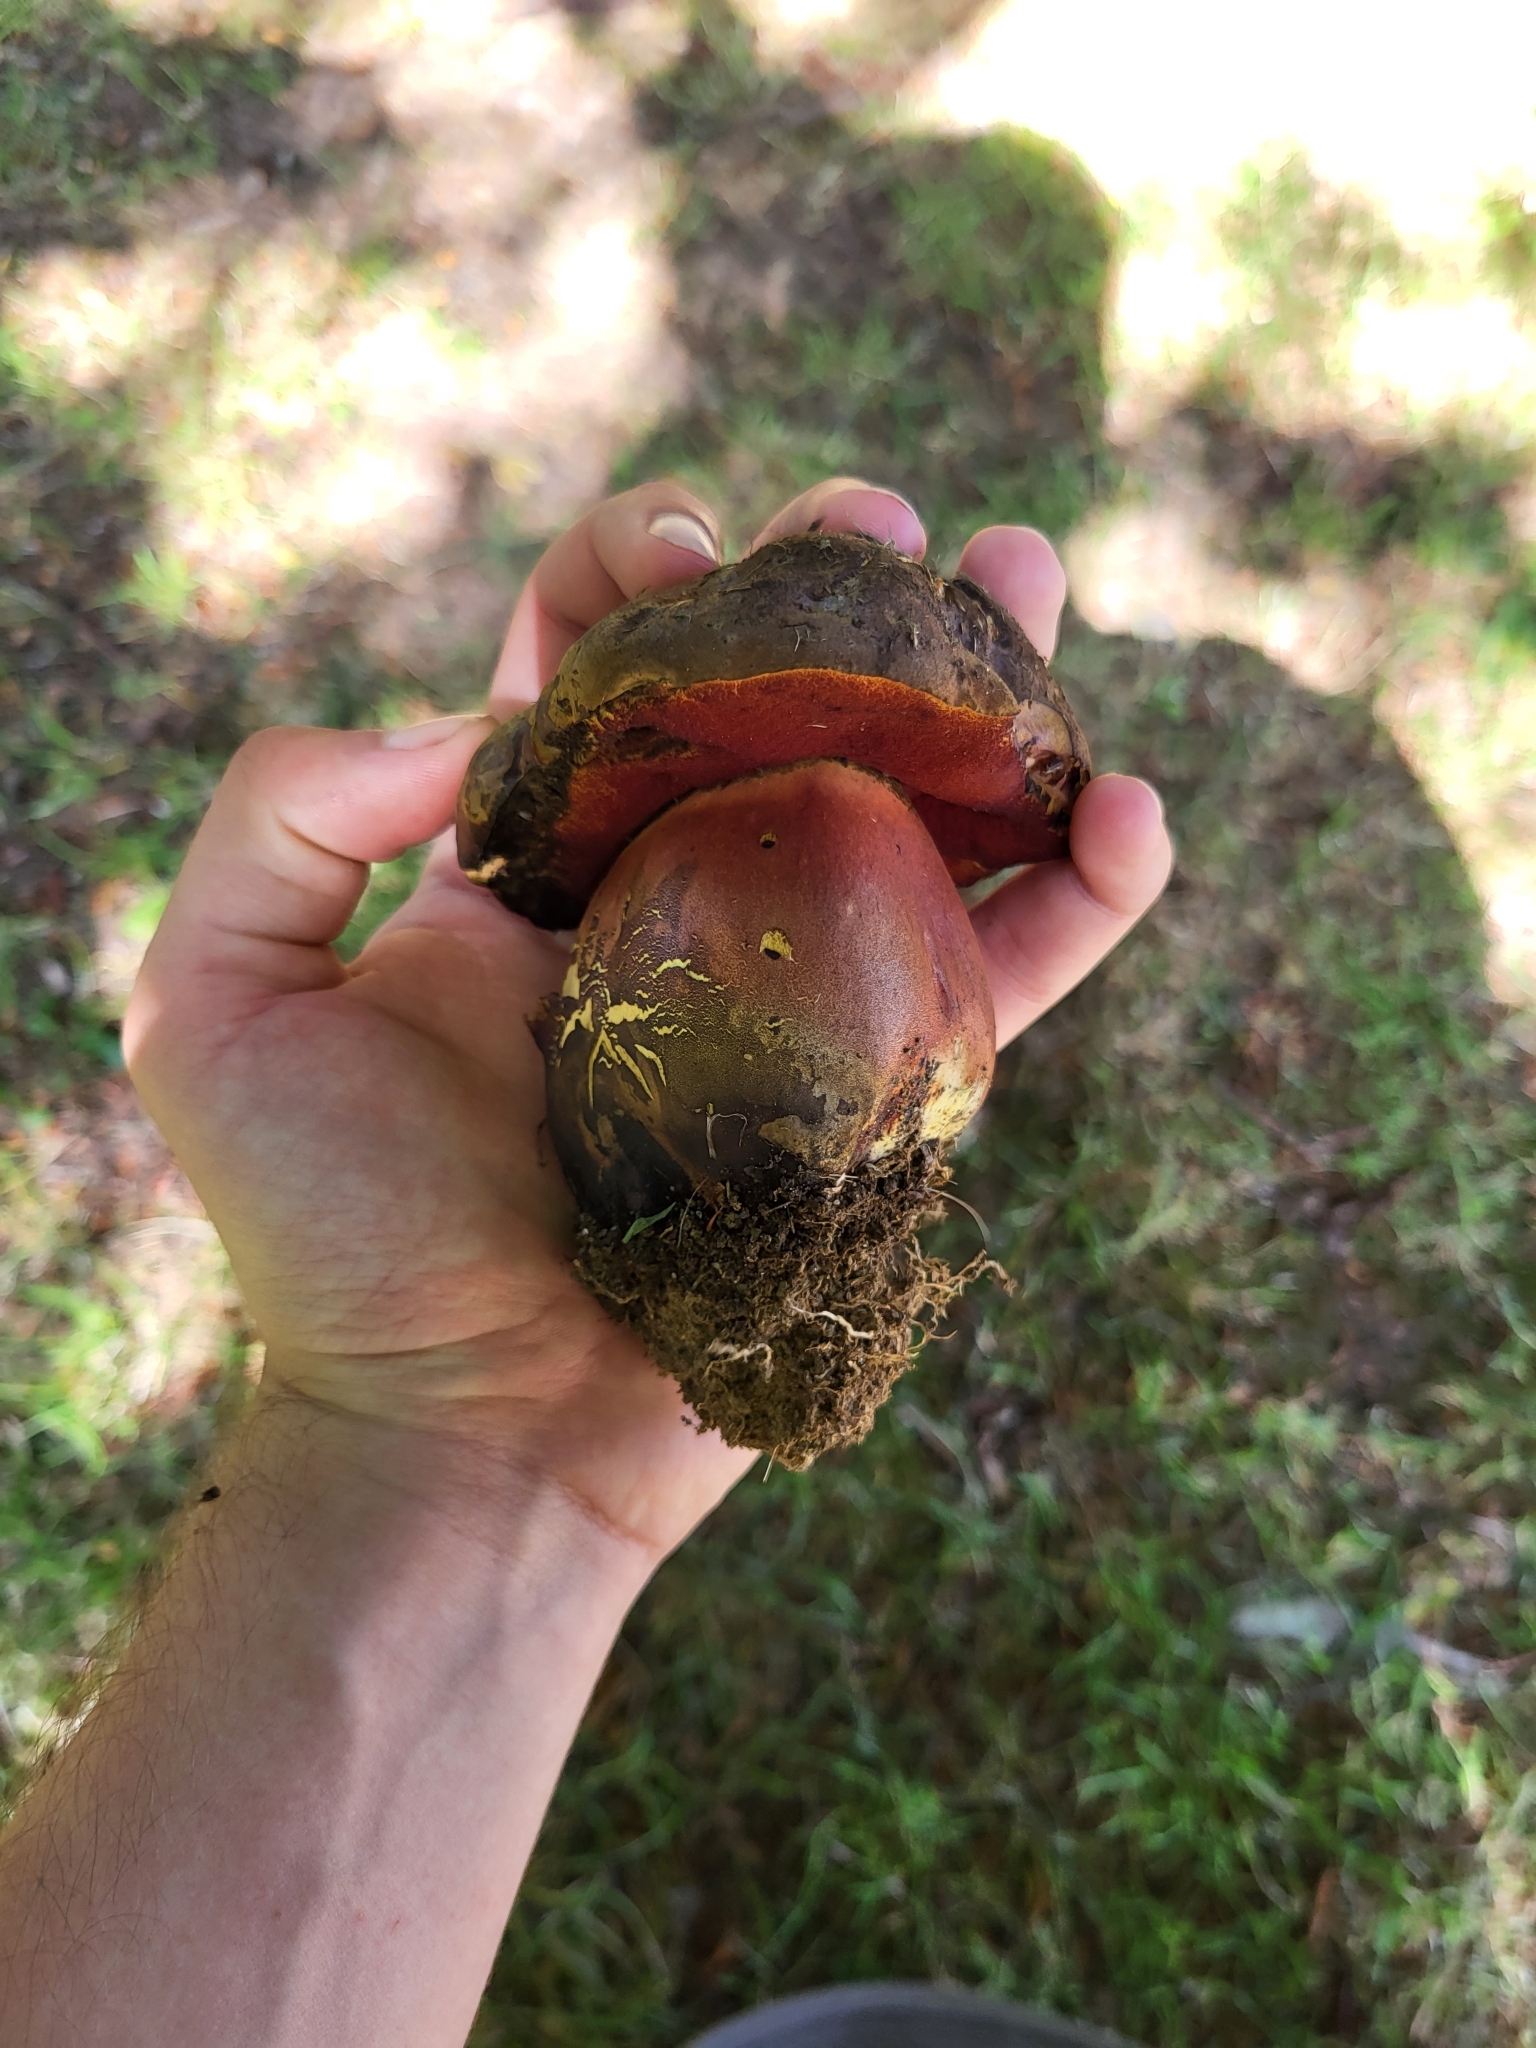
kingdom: Fungi
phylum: Basidiomycota
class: Agaricomycetes
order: Boletales
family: Boletaceae
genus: Neoboletus
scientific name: Neoboletus luridiformis
